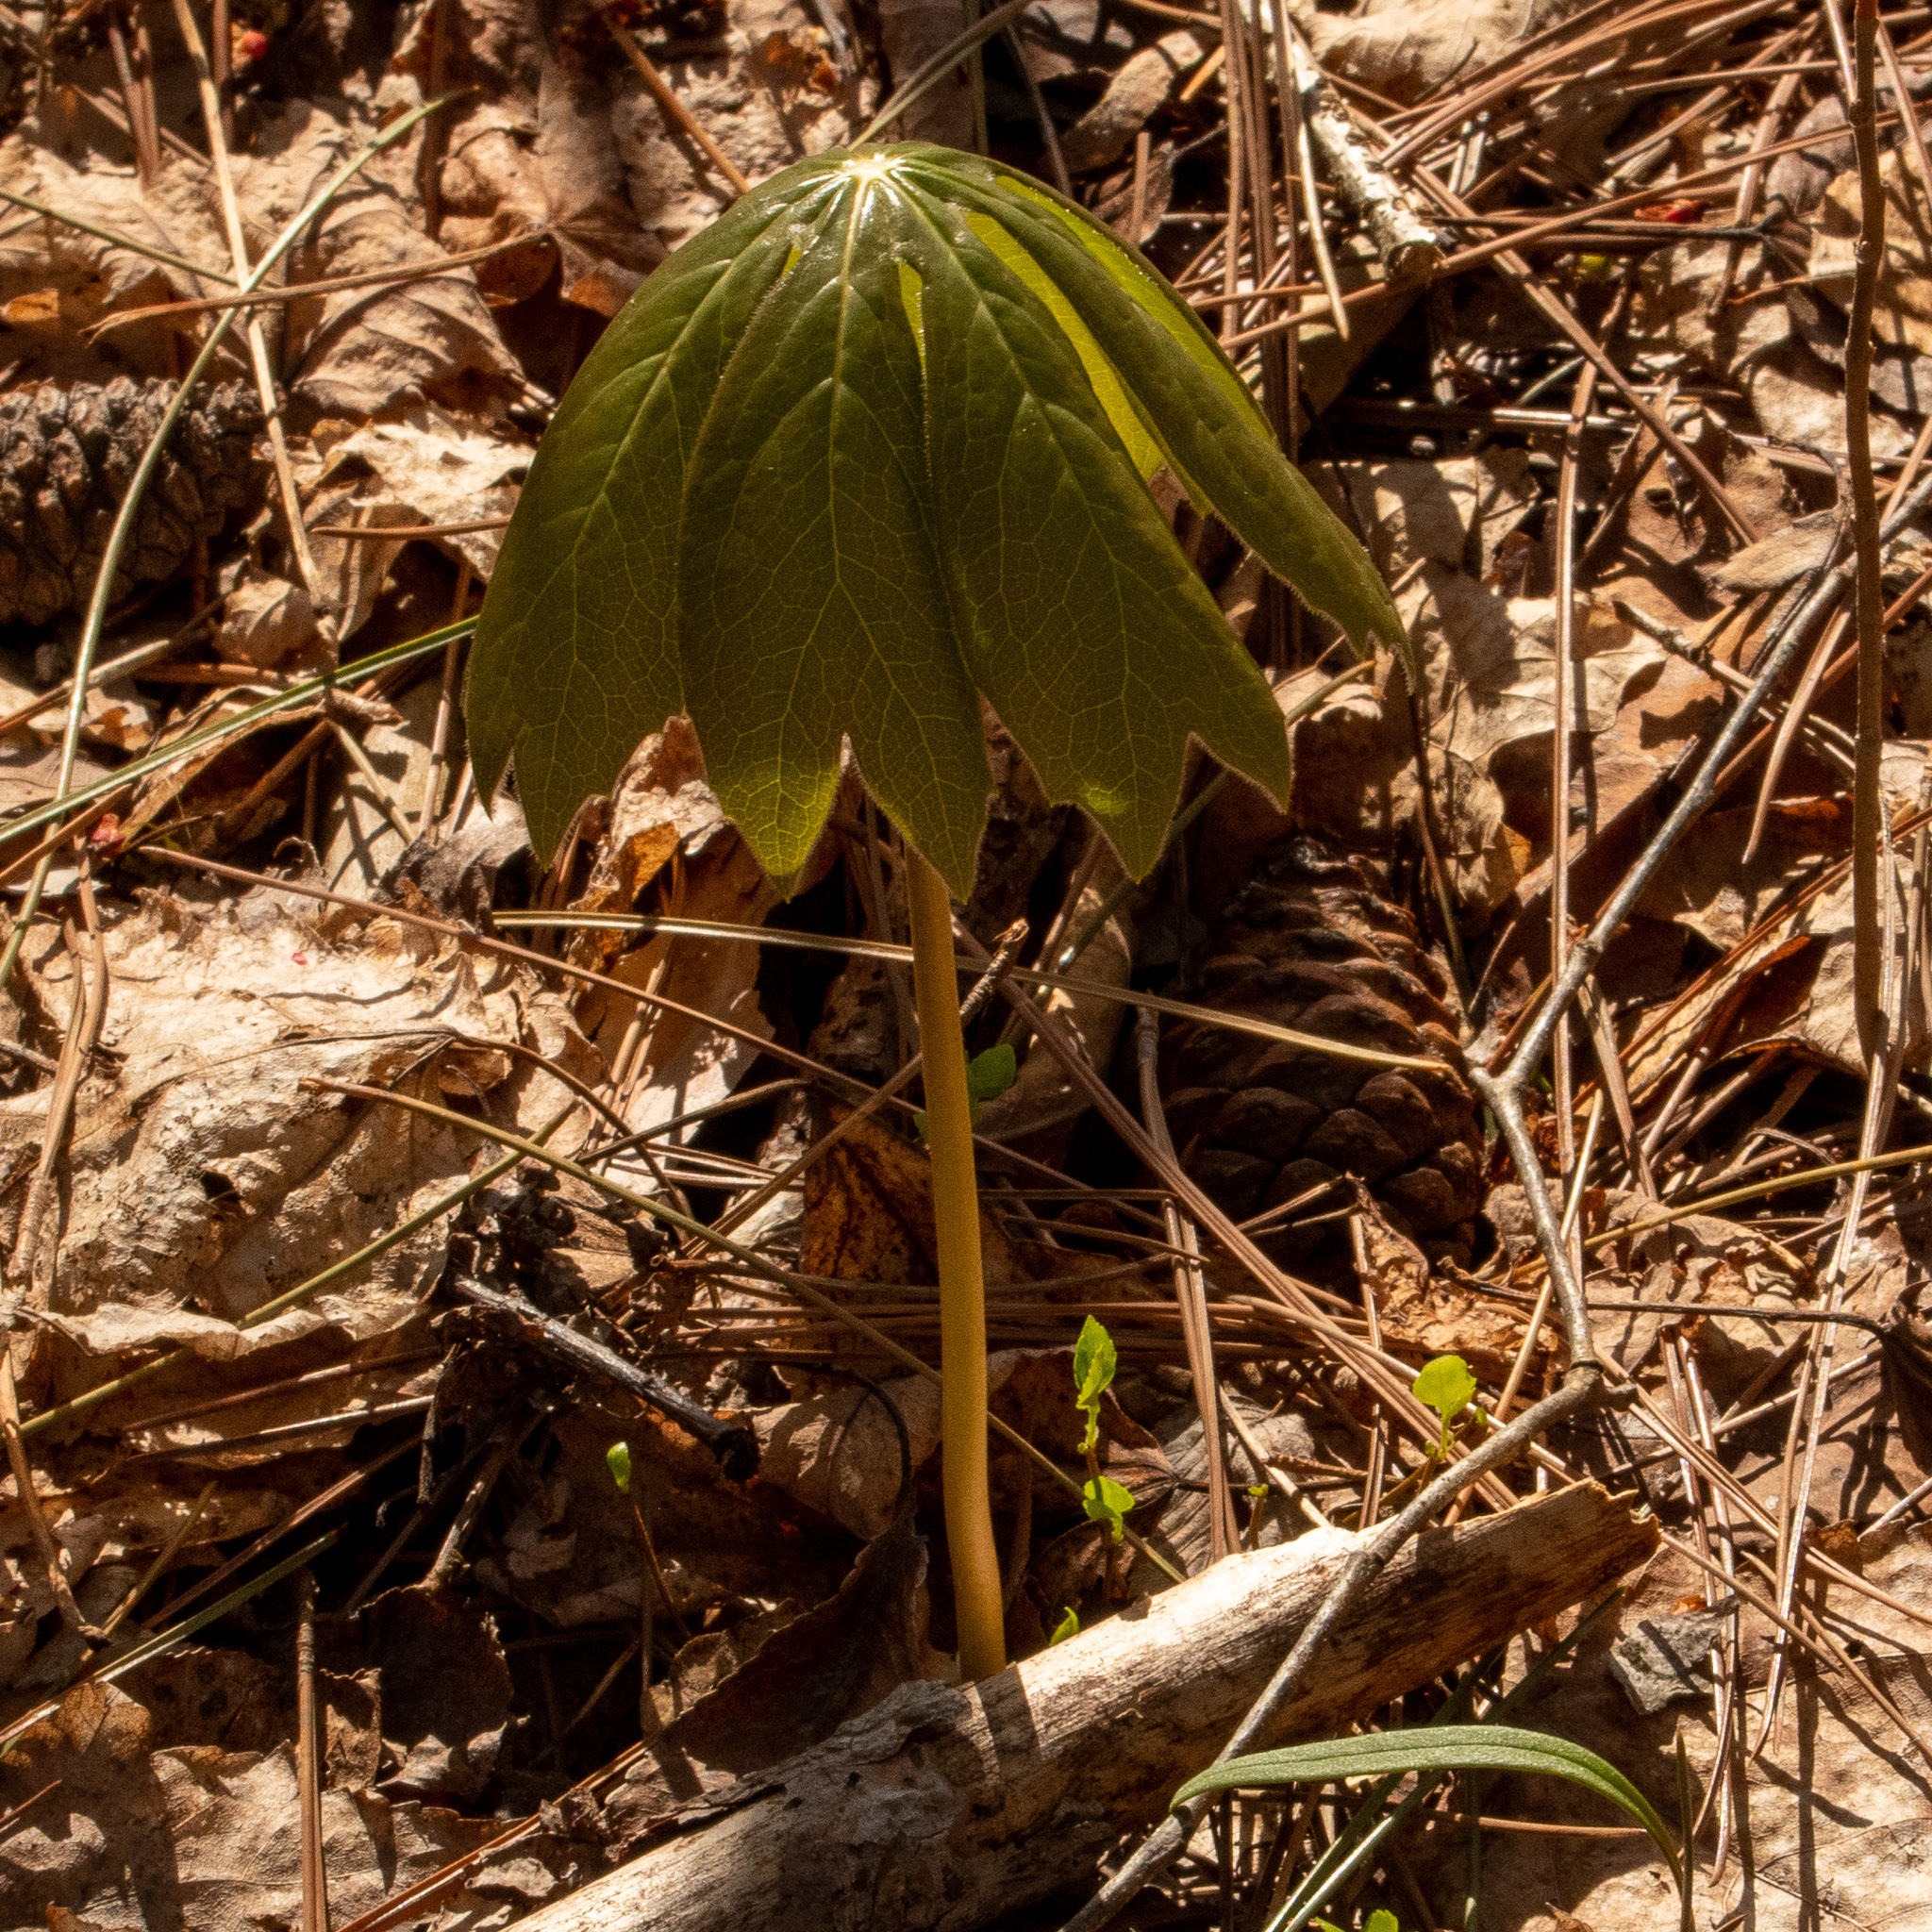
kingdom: Plantae
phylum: Tracheophyta
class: Magnoliopsida
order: Ranunculales
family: Berberidaceae
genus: Podophyllum
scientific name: Podophyllum peltatum
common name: Wild mandrake
